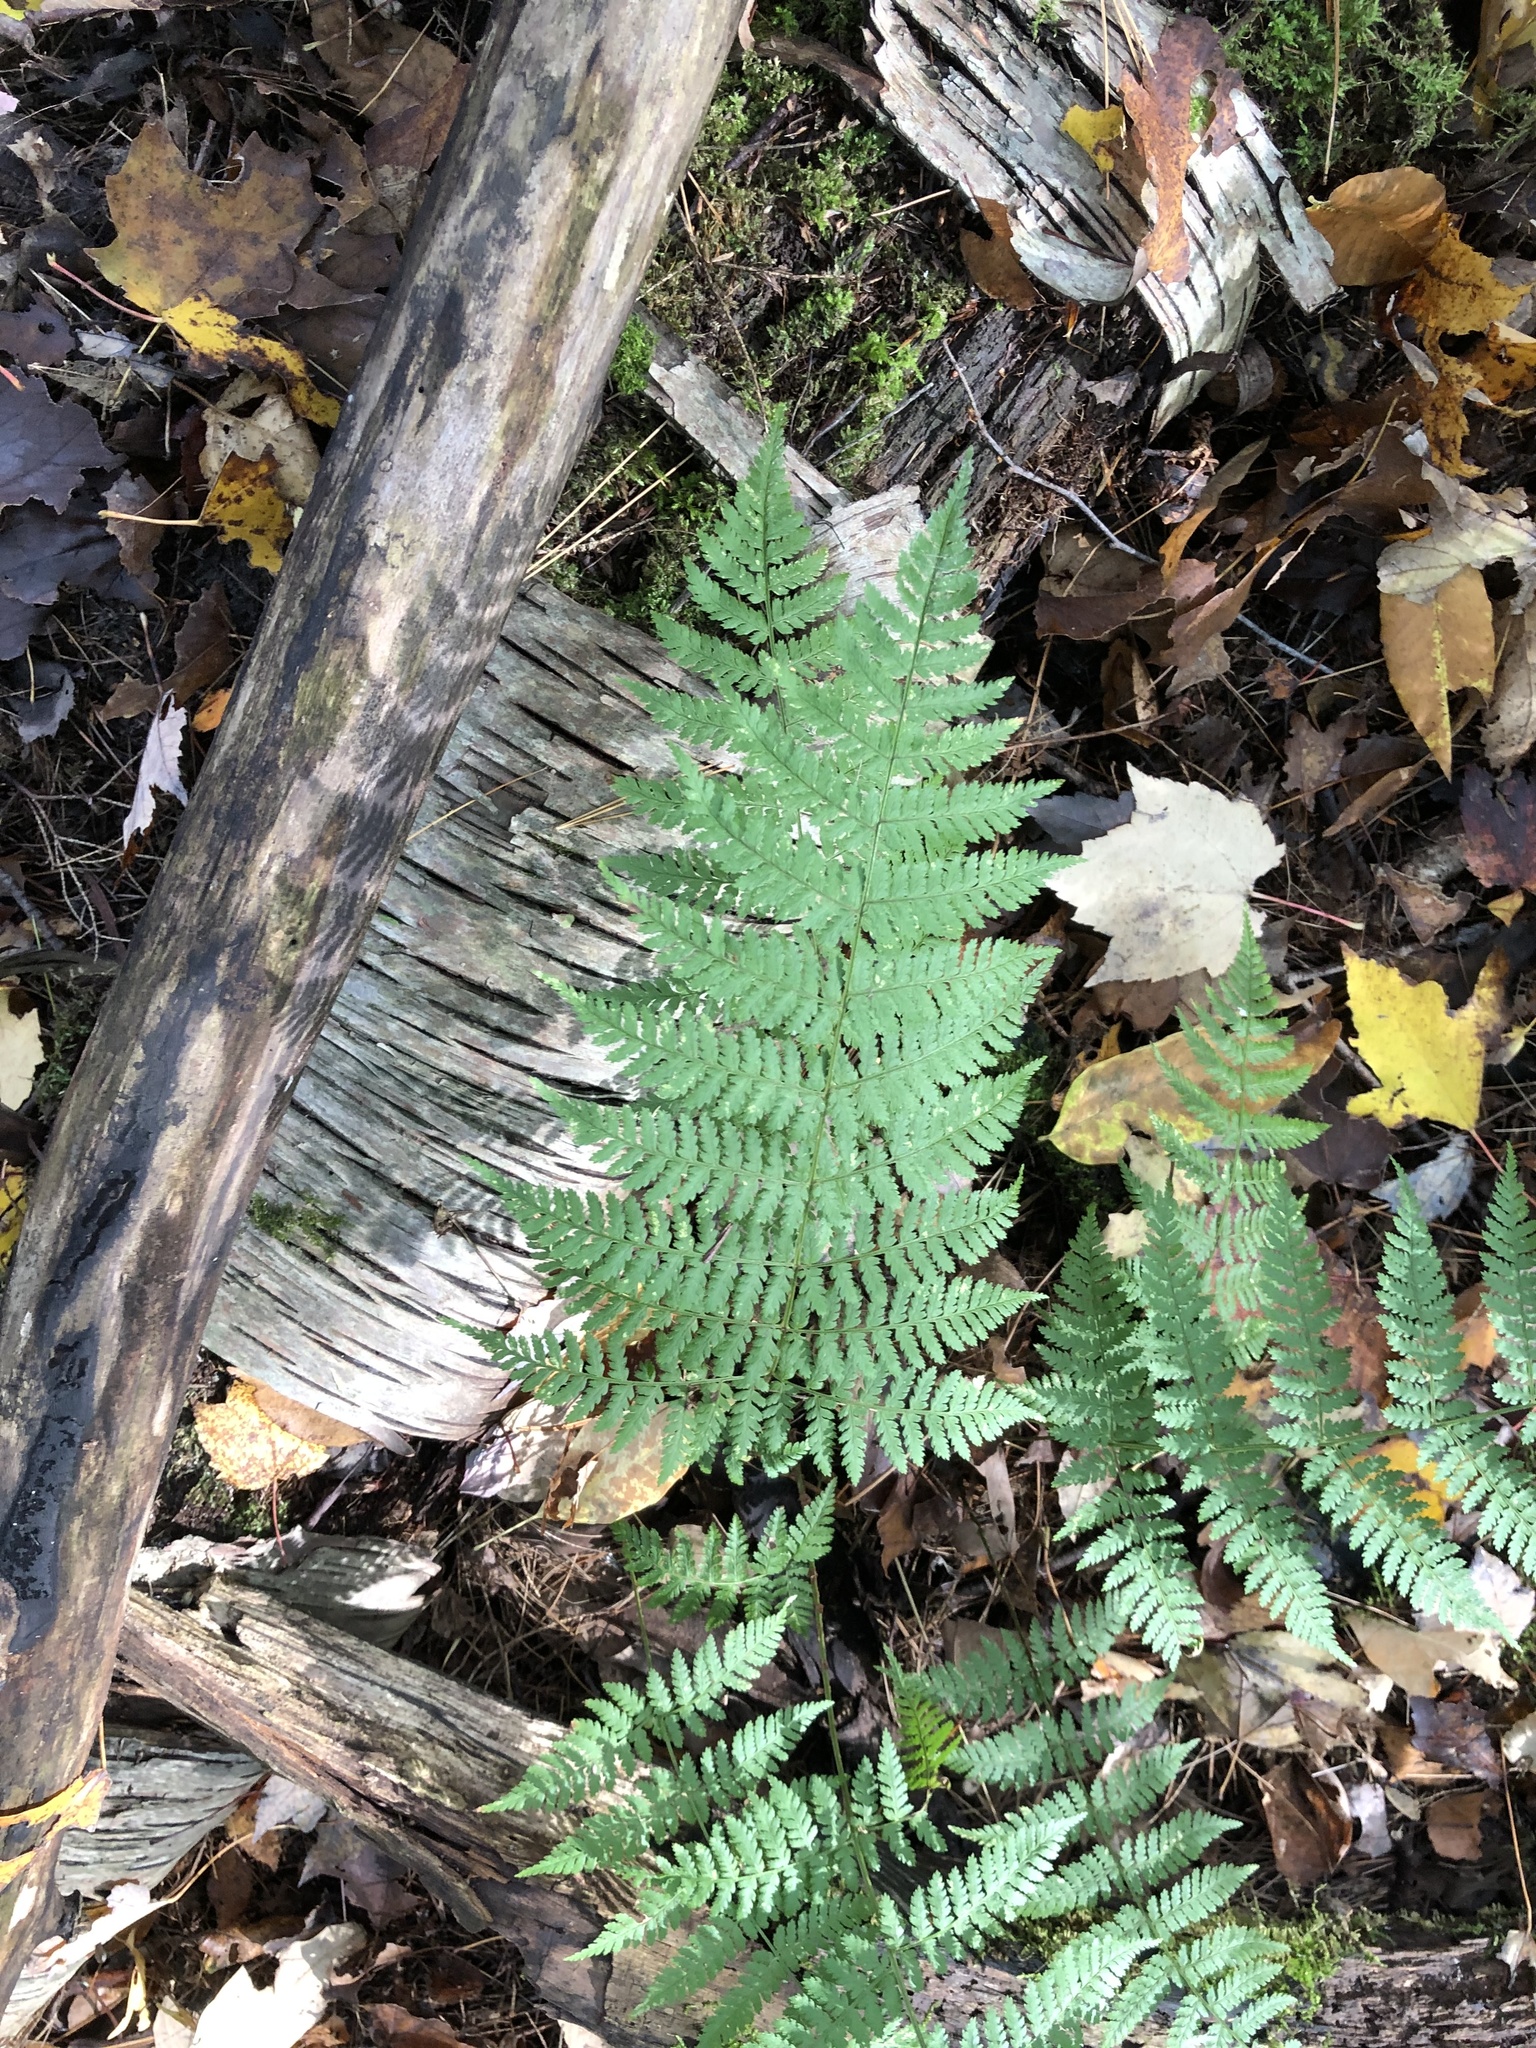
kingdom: Plantae
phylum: Tracheophyta
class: Polypodiopsida
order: Polypodiales
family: Dryopteridaceae
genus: Dryopteris
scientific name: Dryopteris intermedia
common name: Evergreen wood fern
